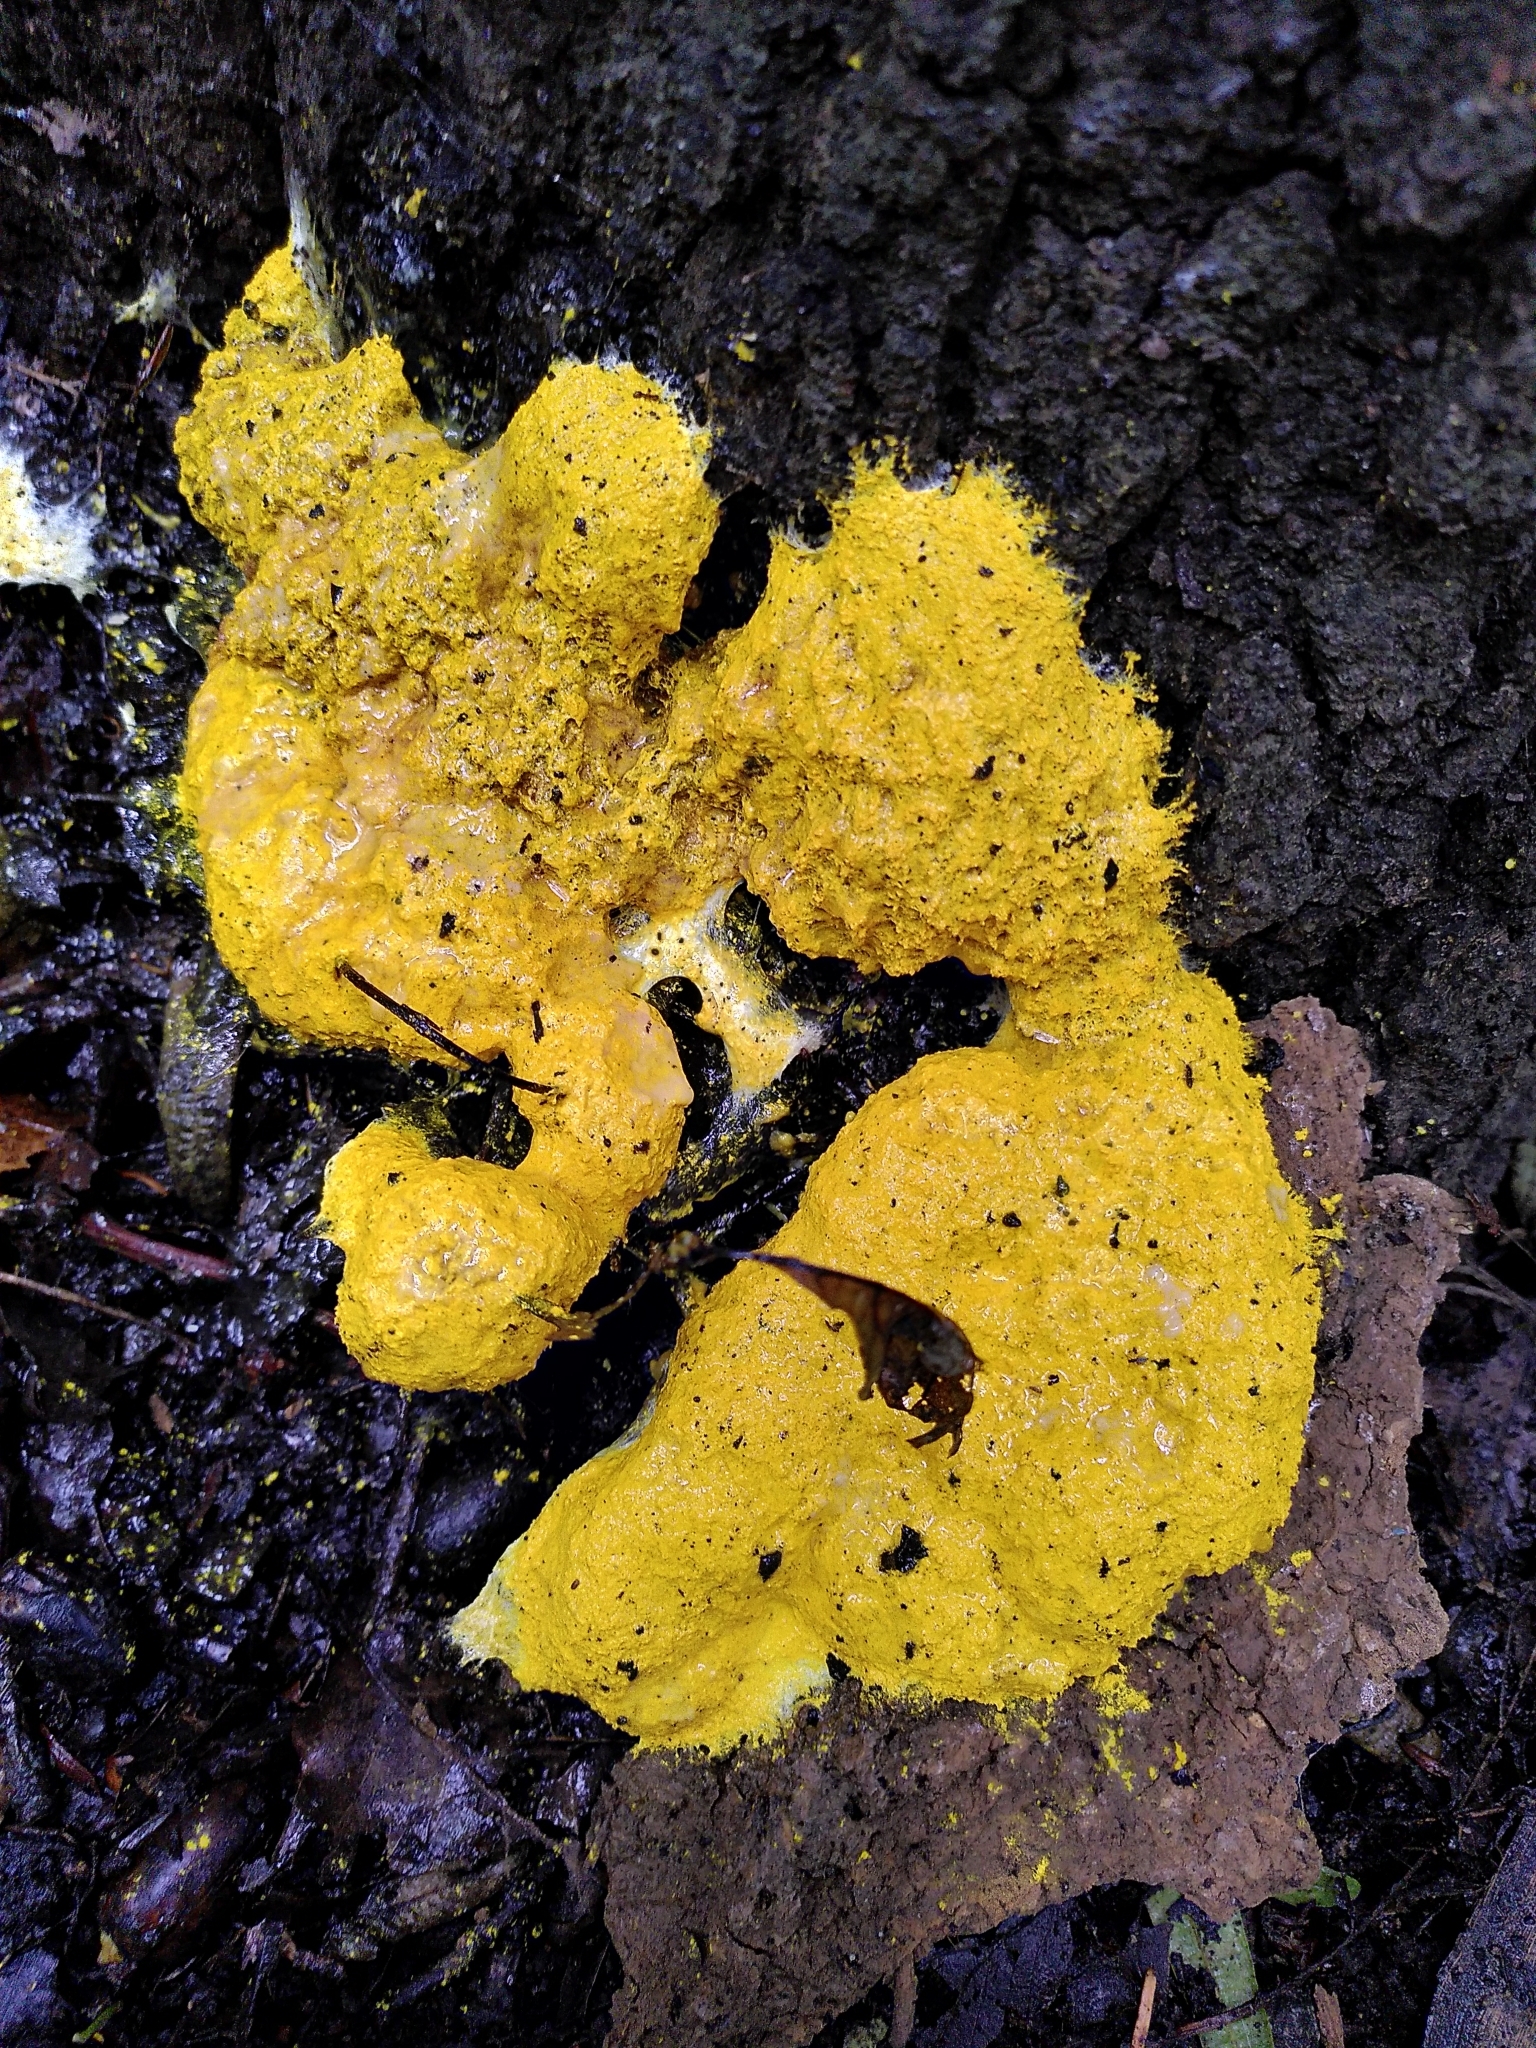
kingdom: Protozoa
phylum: Mycetozoa
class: Myxomycetes
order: Physarales
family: Physaraceae
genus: Fuligo
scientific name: Fuligo septica
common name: Dog vomit slime mold
